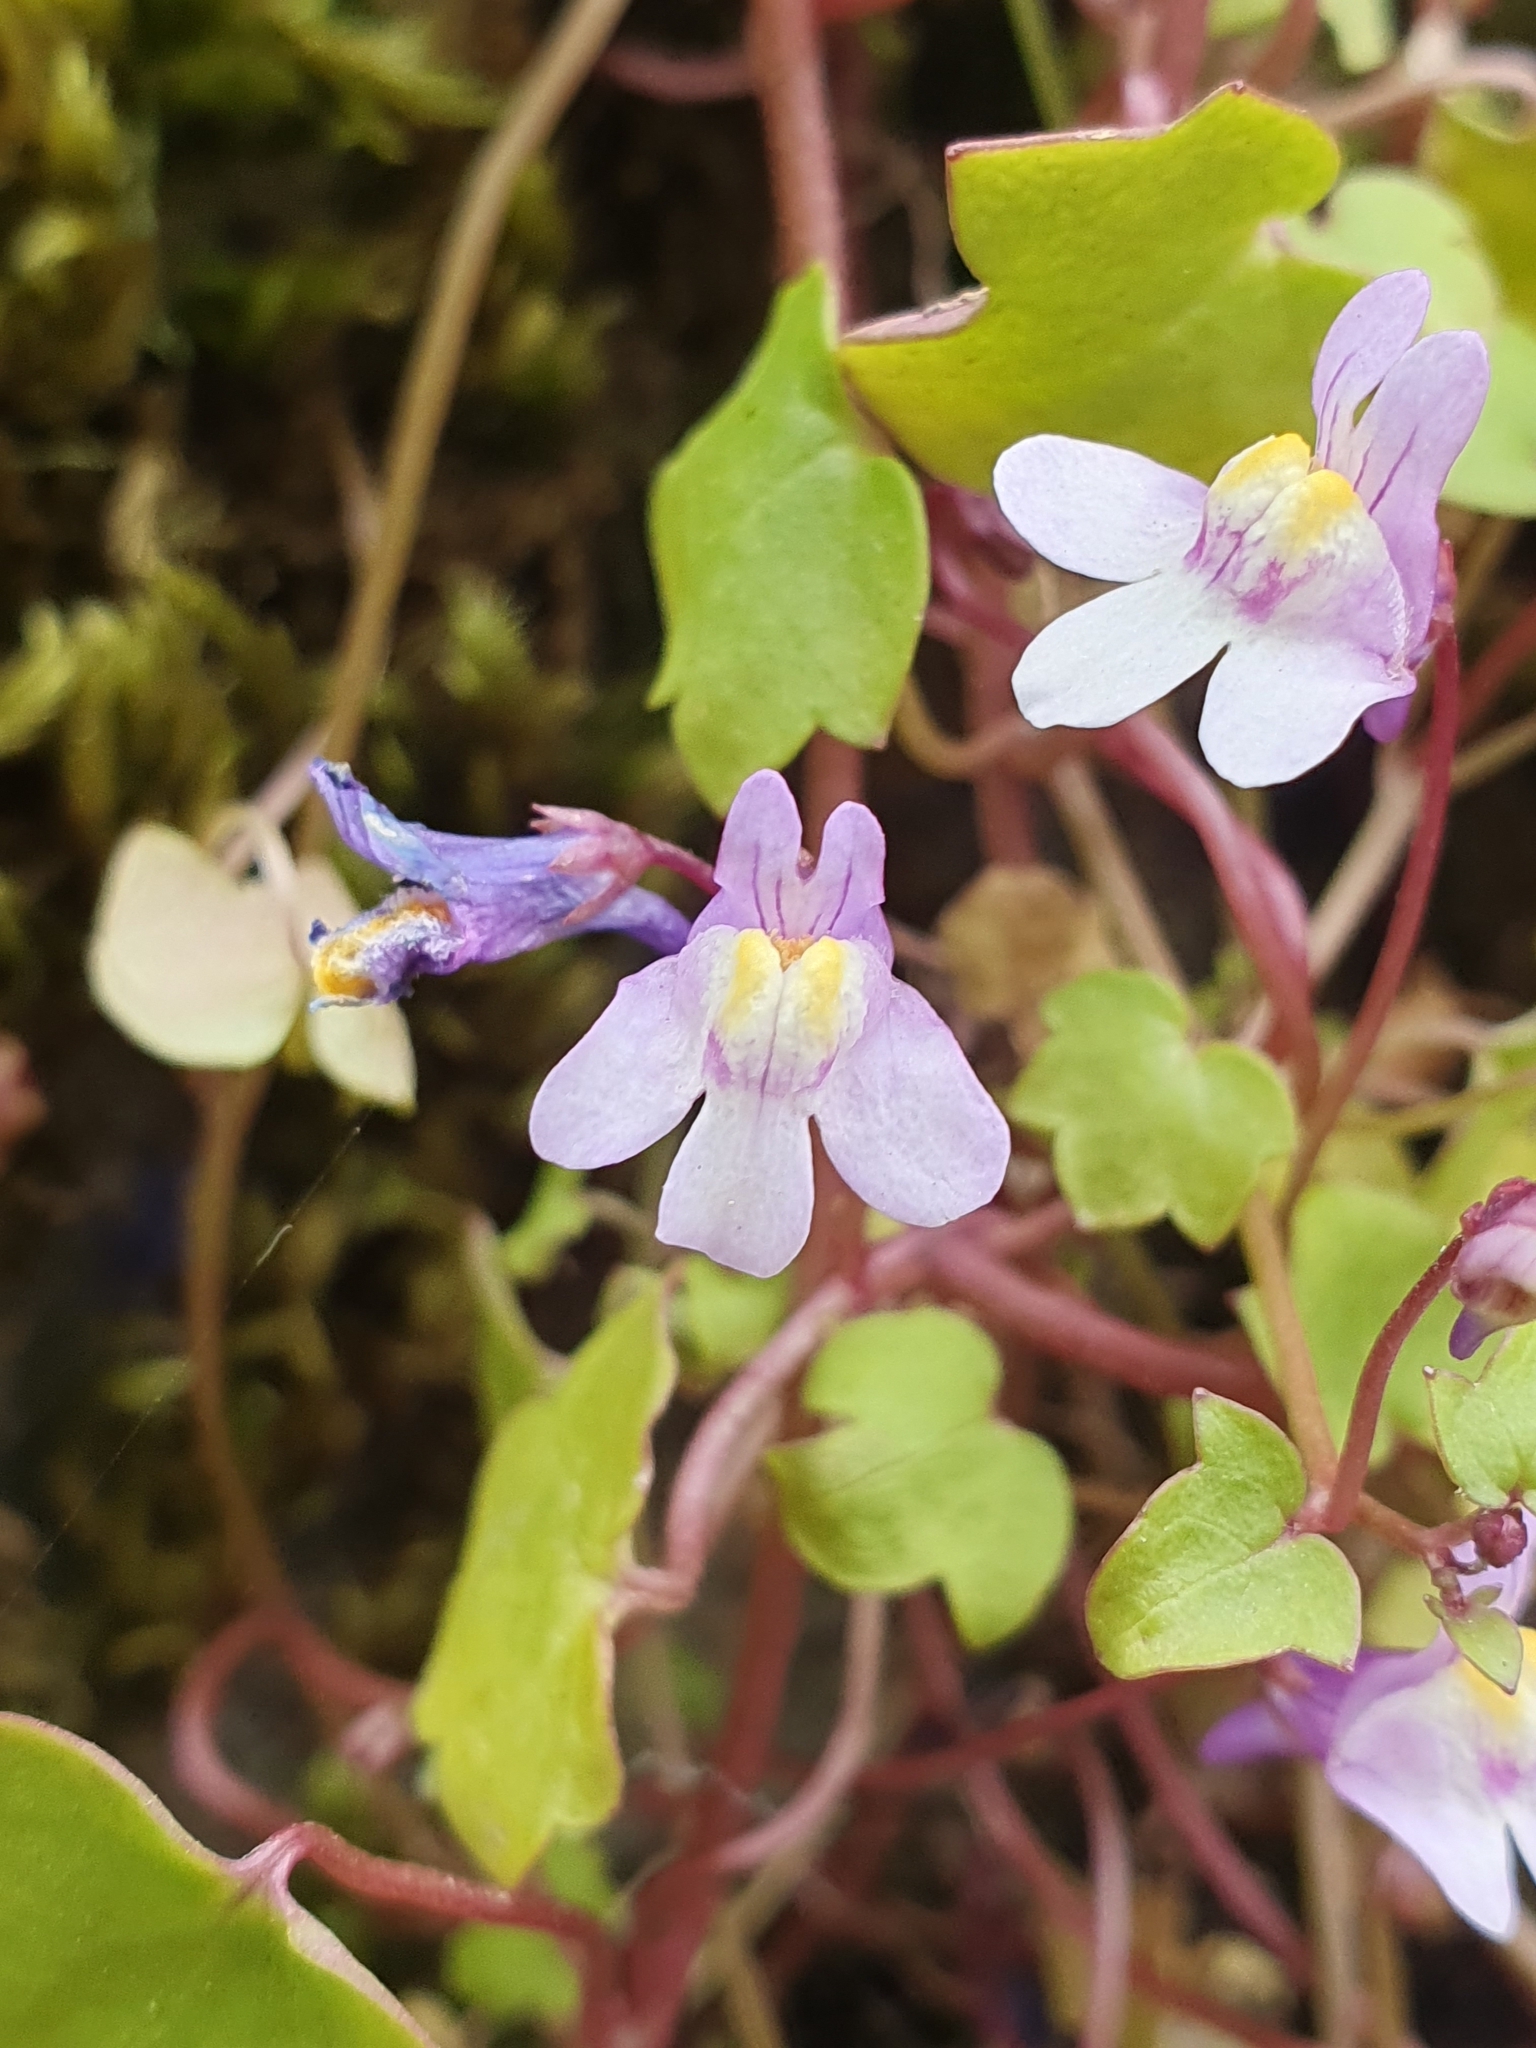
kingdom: Plantae
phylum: Tracheophyta
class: Magnoliopsida
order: Lamiales
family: Plantaginaceae
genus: Cymbalaria
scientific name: Cymbalaria muralis
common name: Ivy-leaved toadflax
